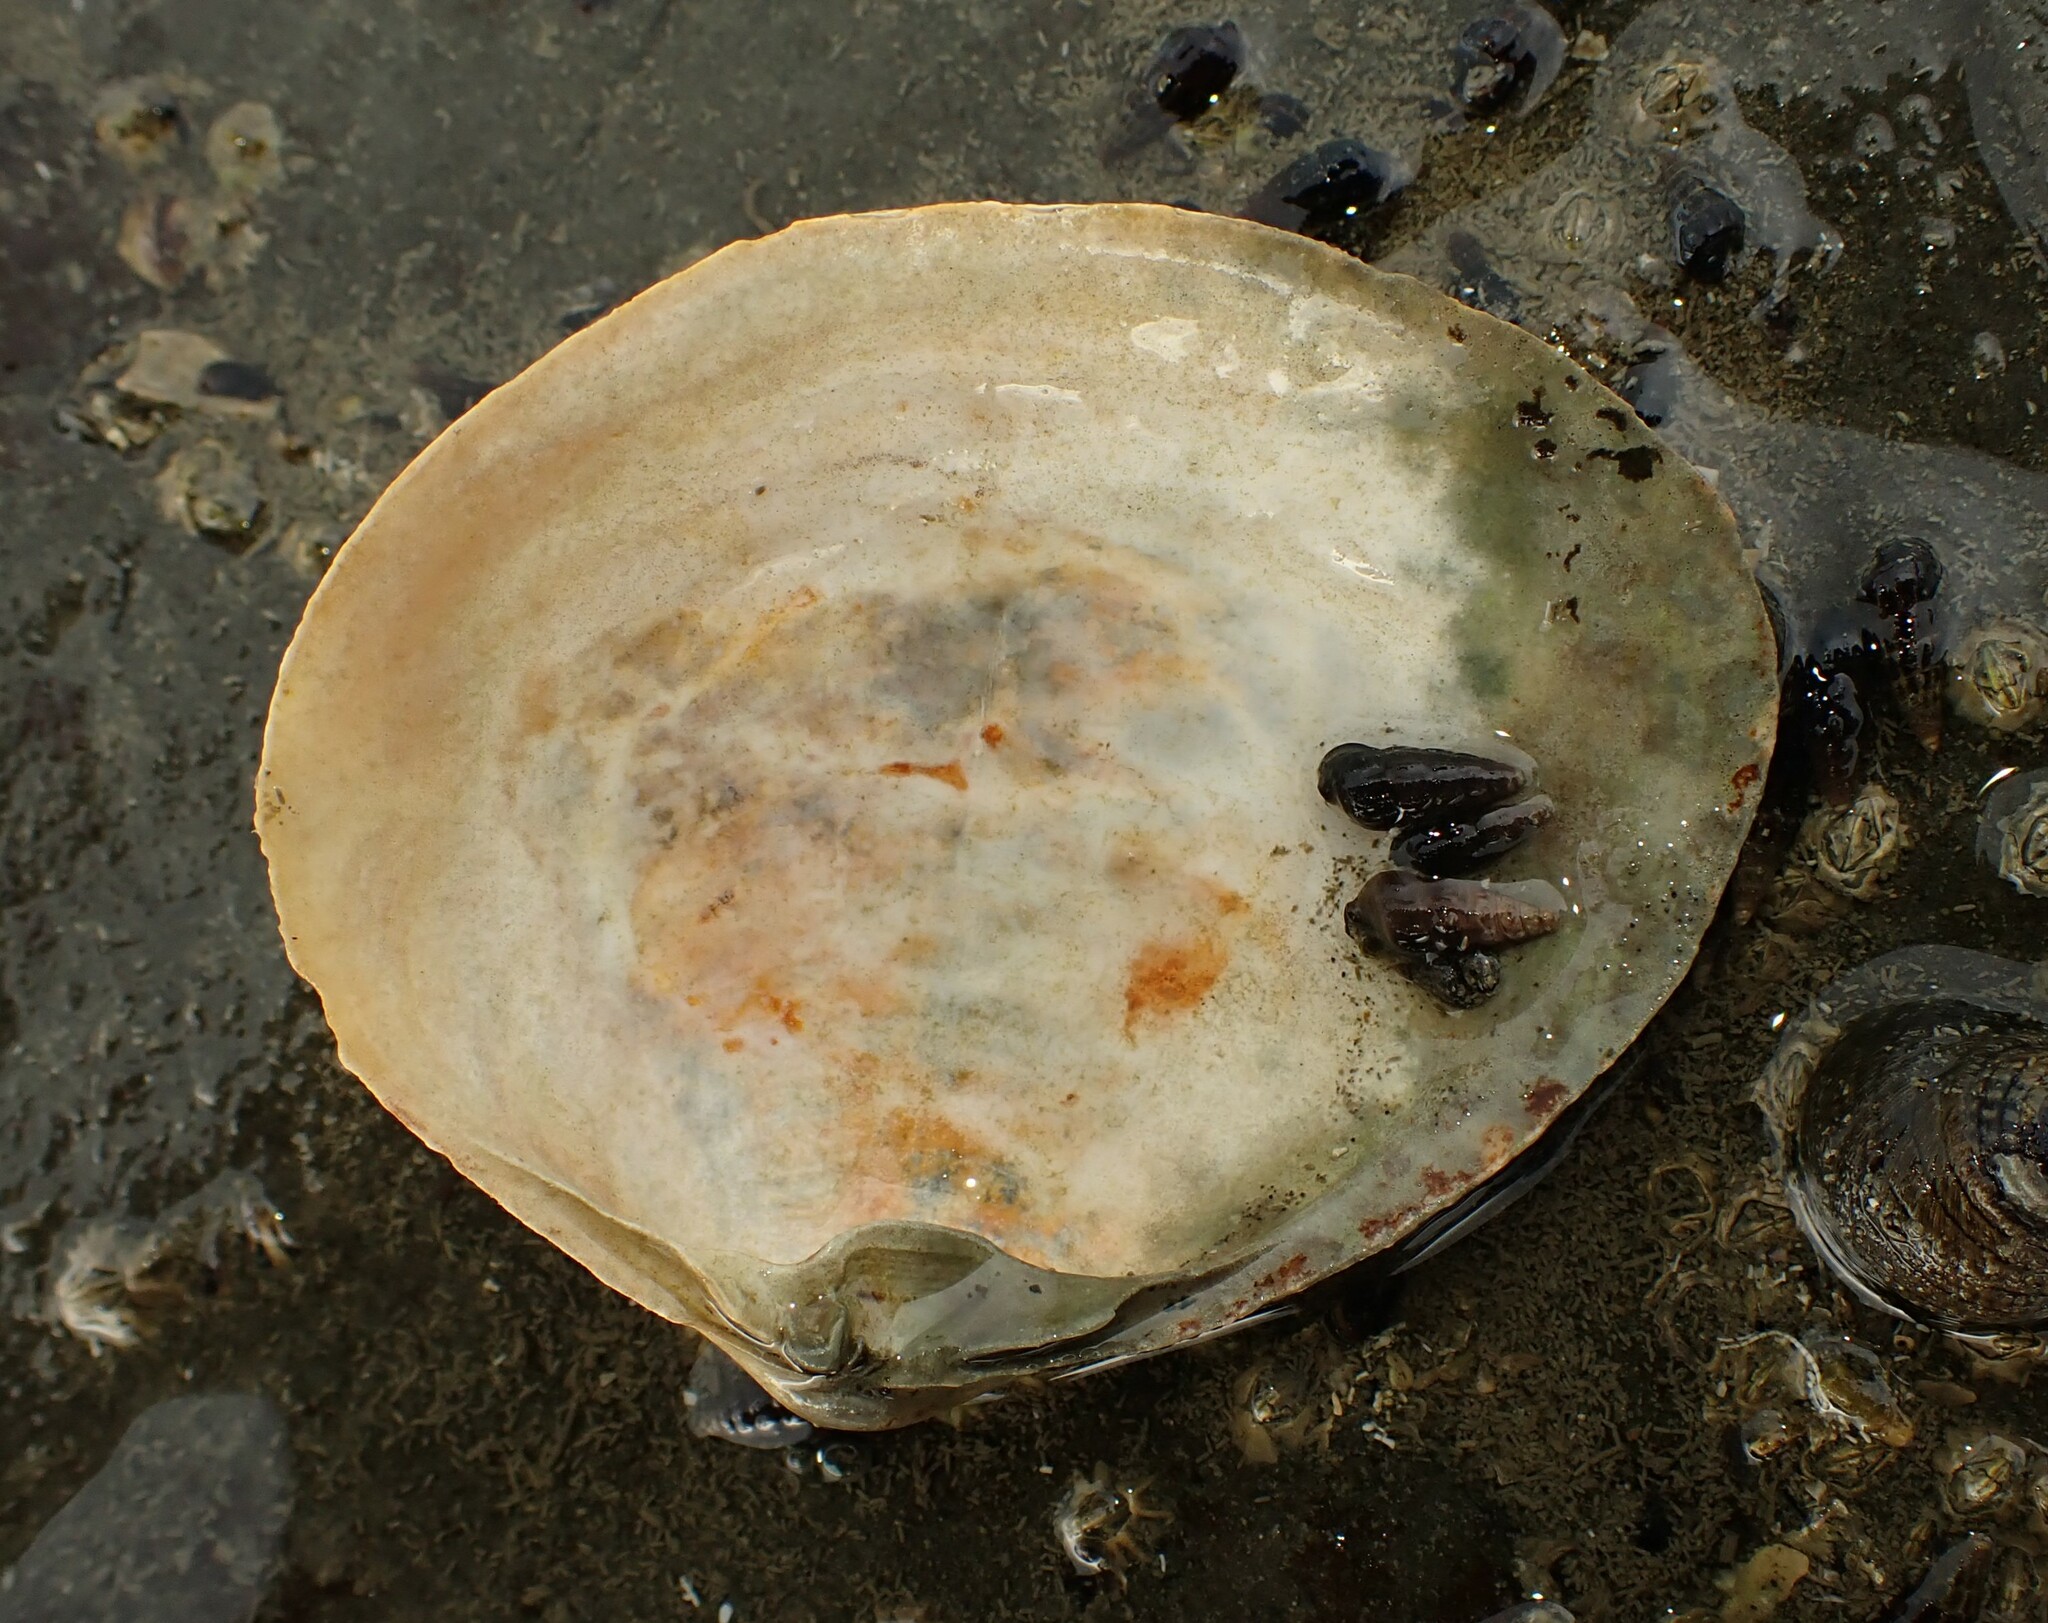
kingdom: Animalia
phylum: Mollusca
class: Gastropoda
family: Batillariidae
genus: Zeacumantus
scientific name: Zeacumantus subcarinatus
